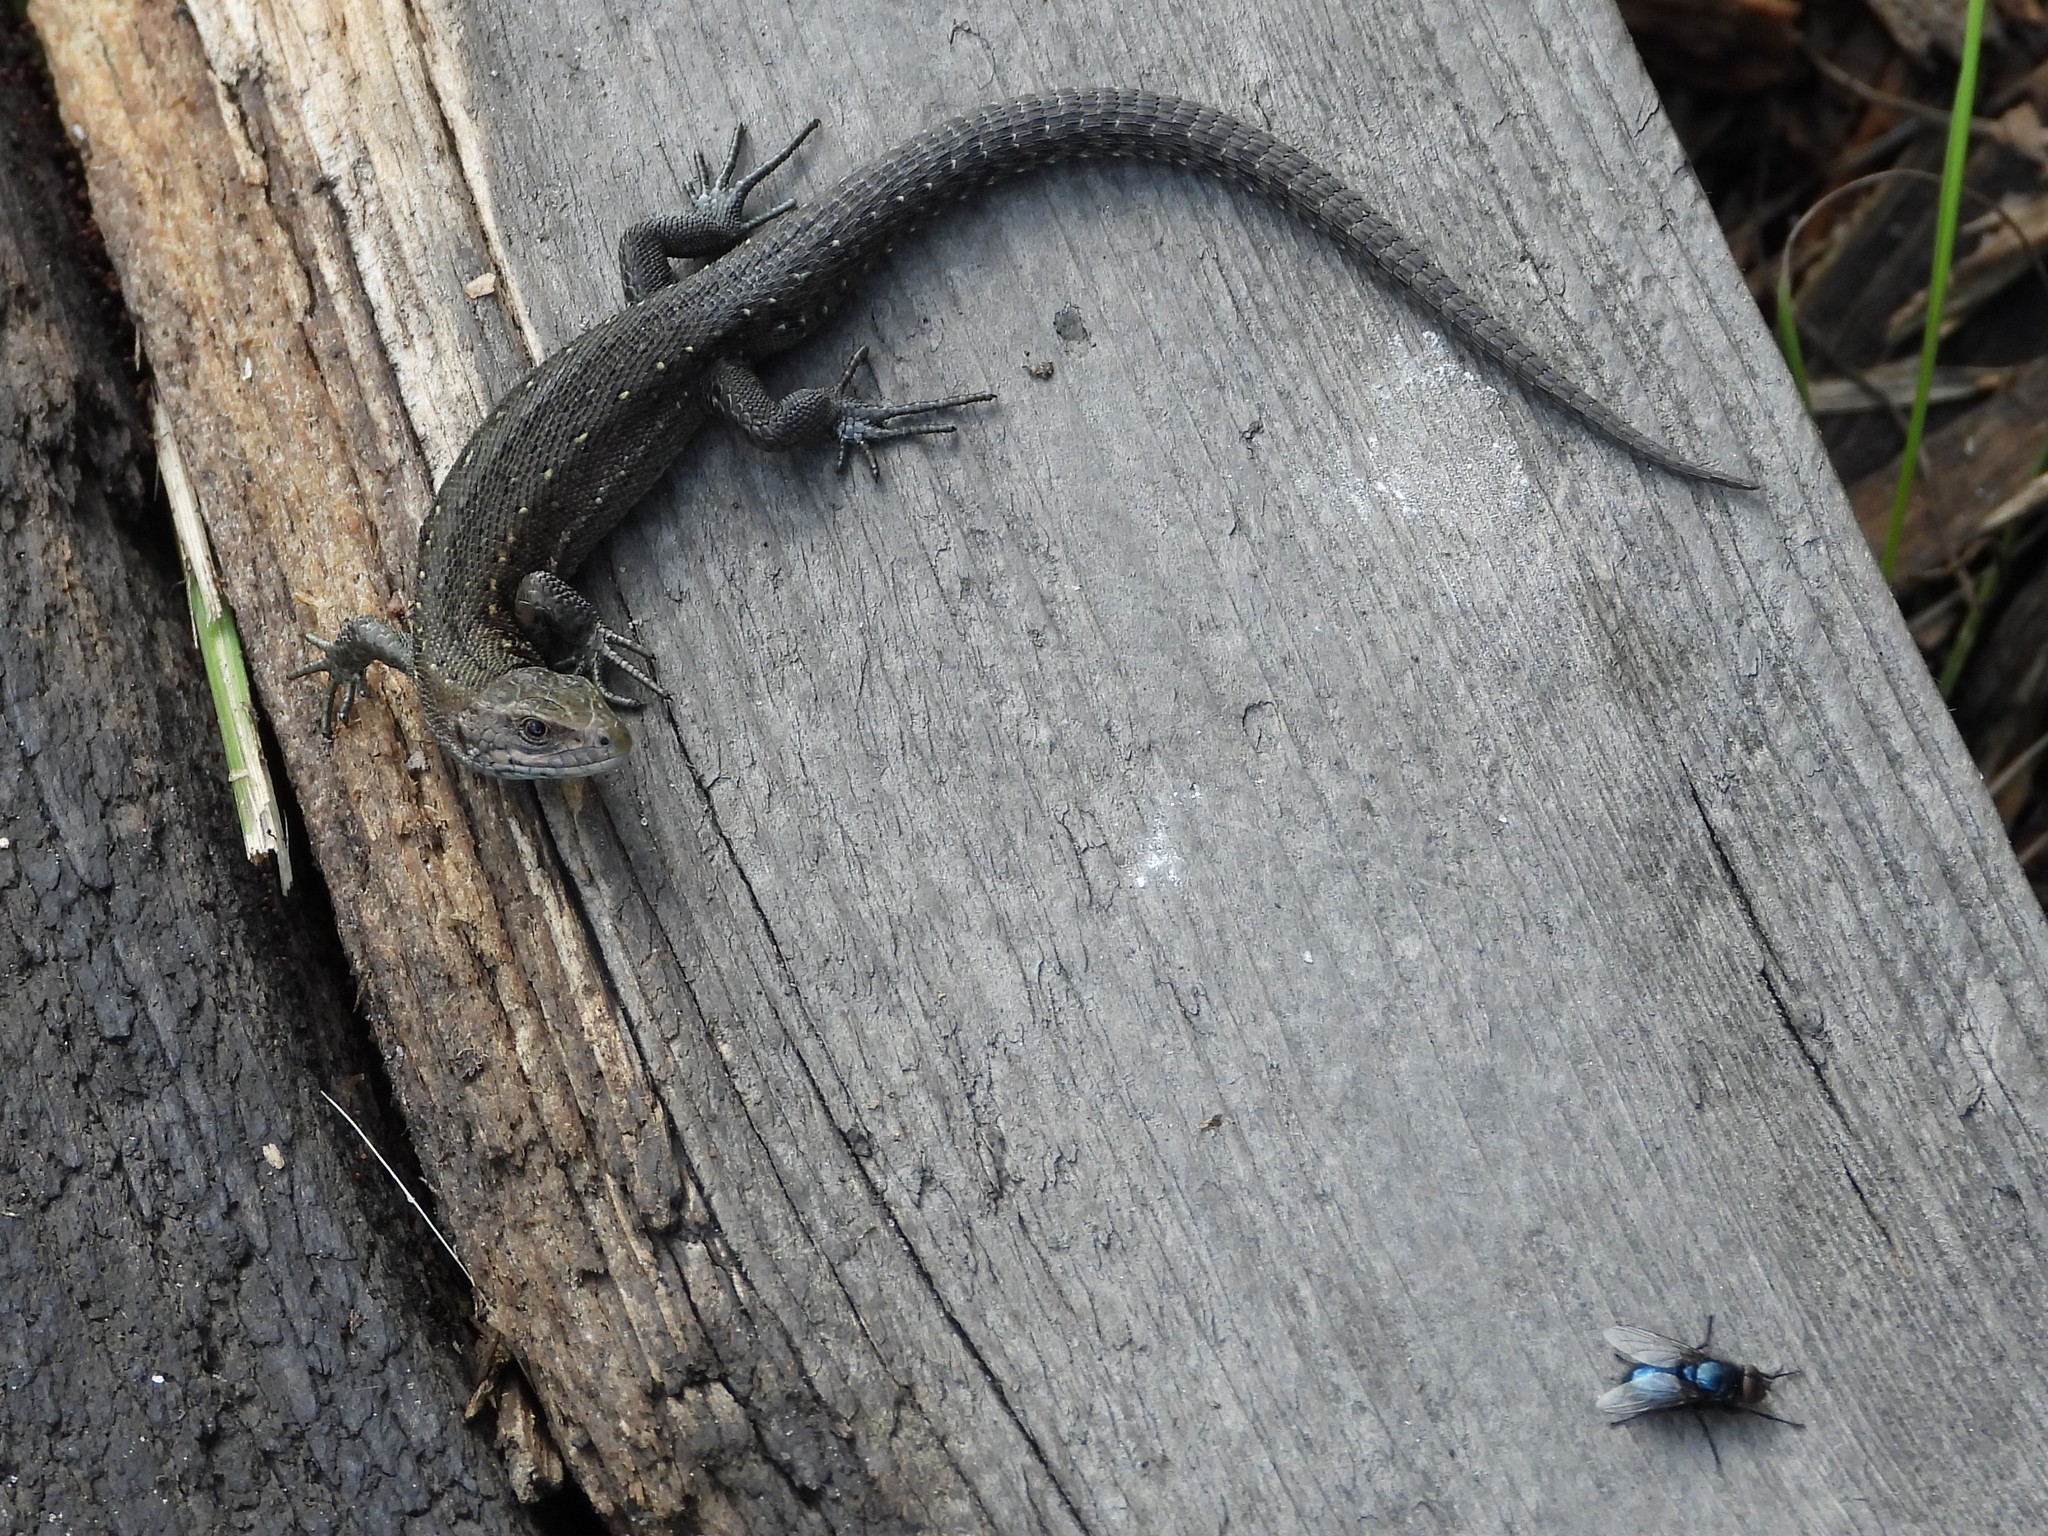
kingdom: Animalia
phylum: Chordata
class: Squamata
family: Lacertidae
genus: Zootoca
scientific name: Zootoca vivipara
